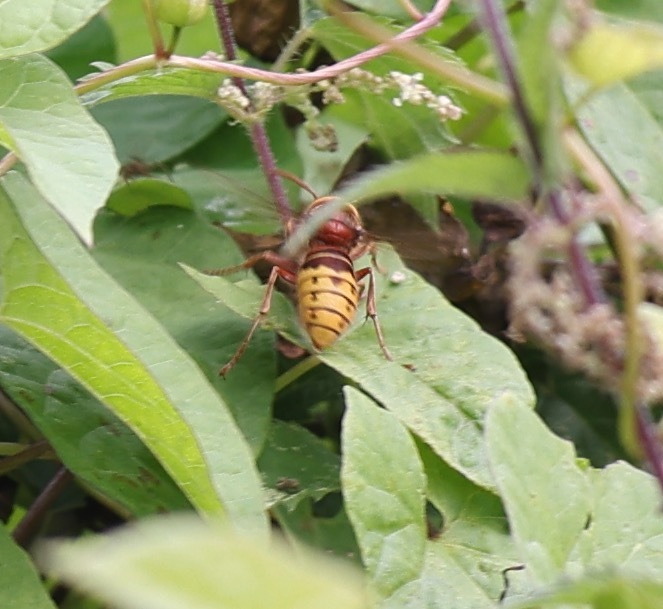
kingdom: Animalia
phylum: Arthropoda
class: Insecta
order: Hymenoptera
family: Vespidae
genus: Vespa
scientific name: Vespa crabro
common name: Hornet
